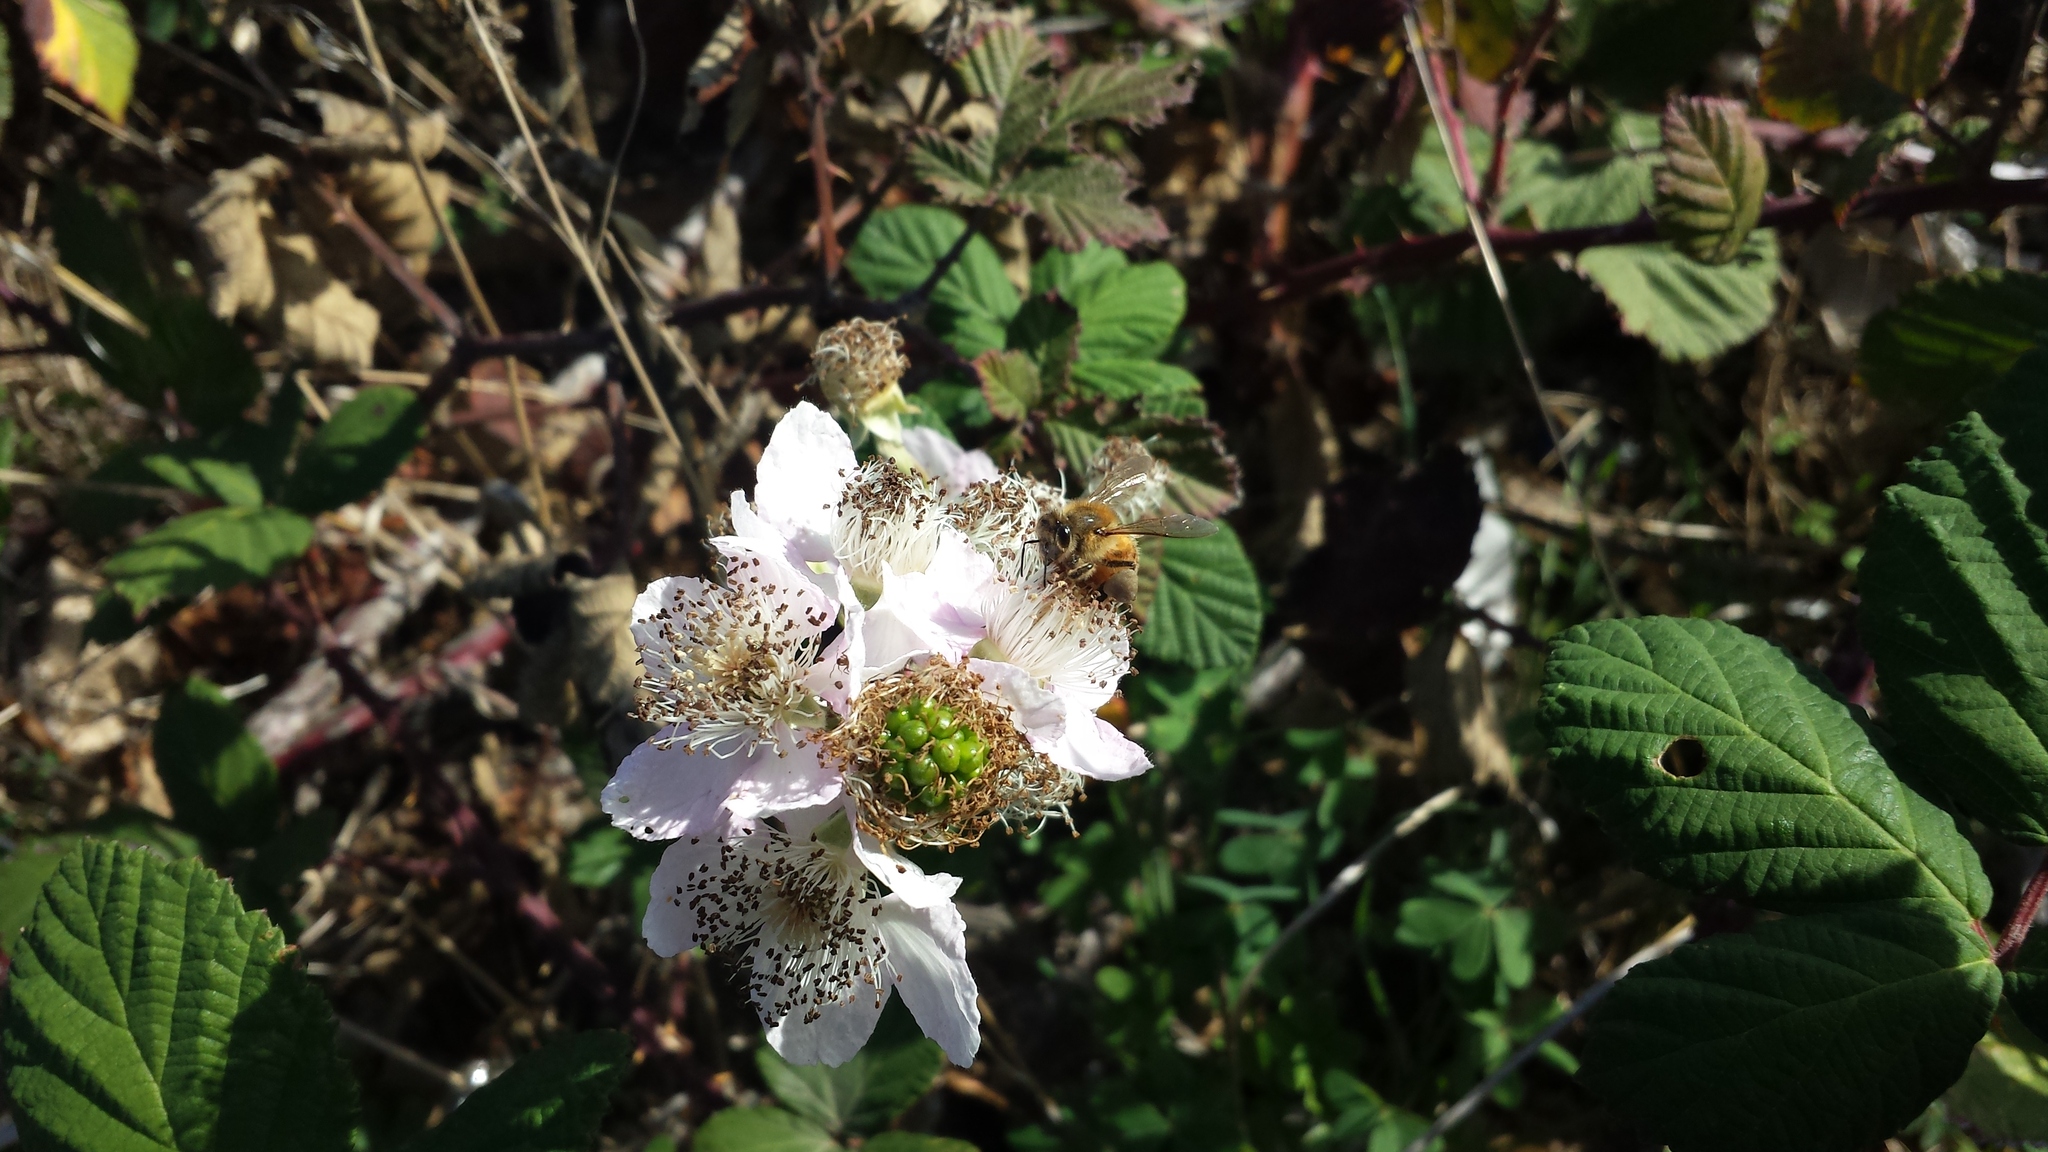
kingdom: Plantae
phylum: Tracheophyta
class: Magnoliopsida
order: Rosales
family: Rosaceae
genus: Rubus
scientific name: Rubus armeniacus
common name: Himalayan blackberry
